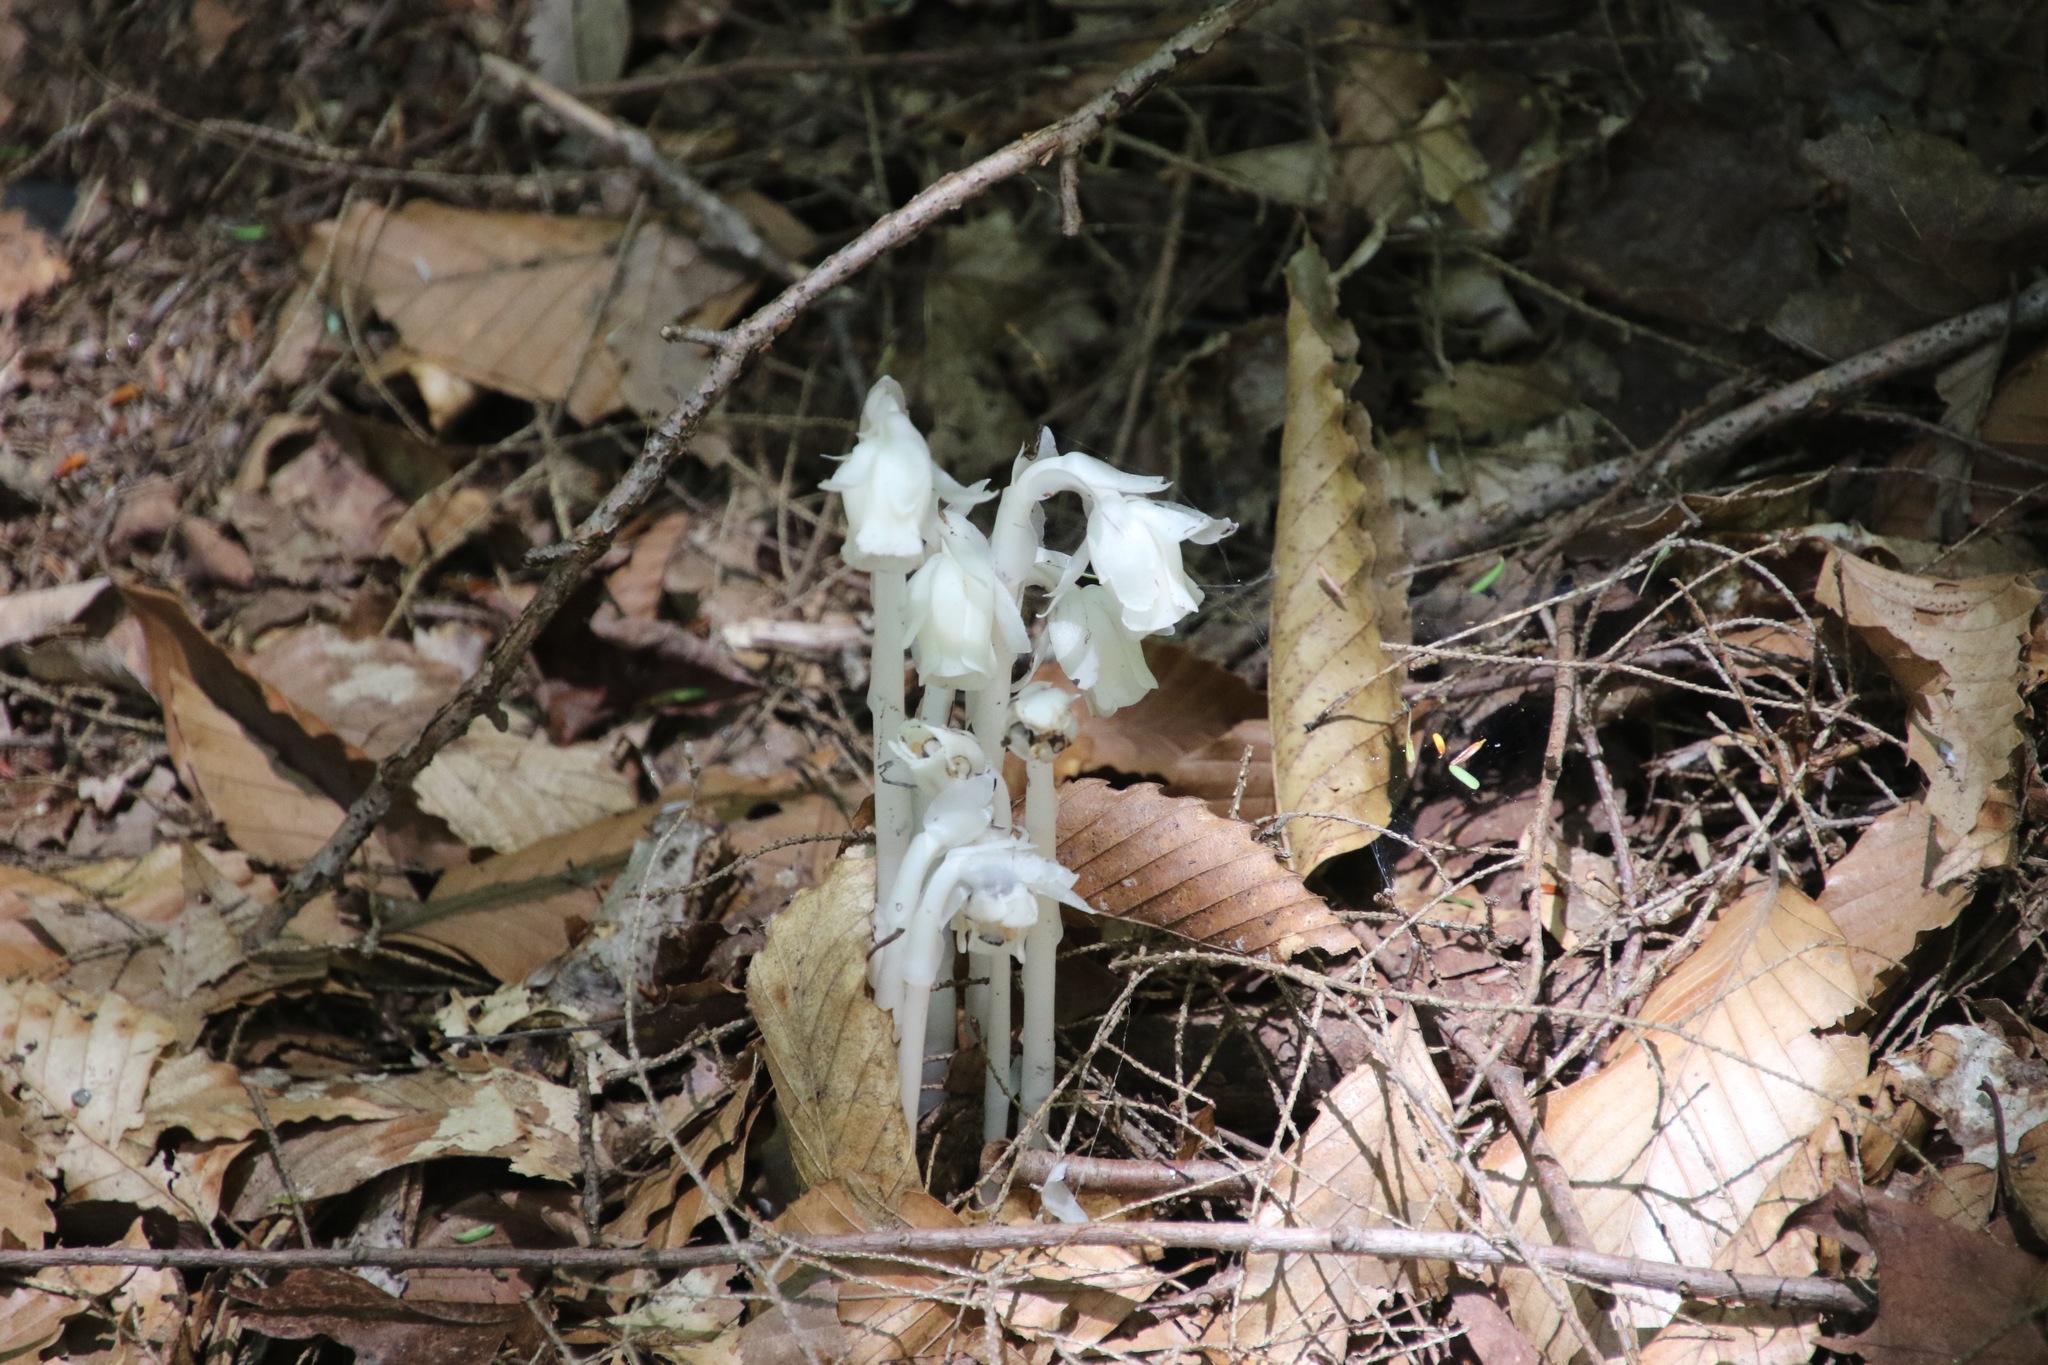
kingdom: Plantae
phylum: Tracheophyta
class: Magnoliopsida
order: Ericales
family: Ericaceae
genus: Monotropa
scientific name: Monotropa uniflora
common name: Convulsion root
